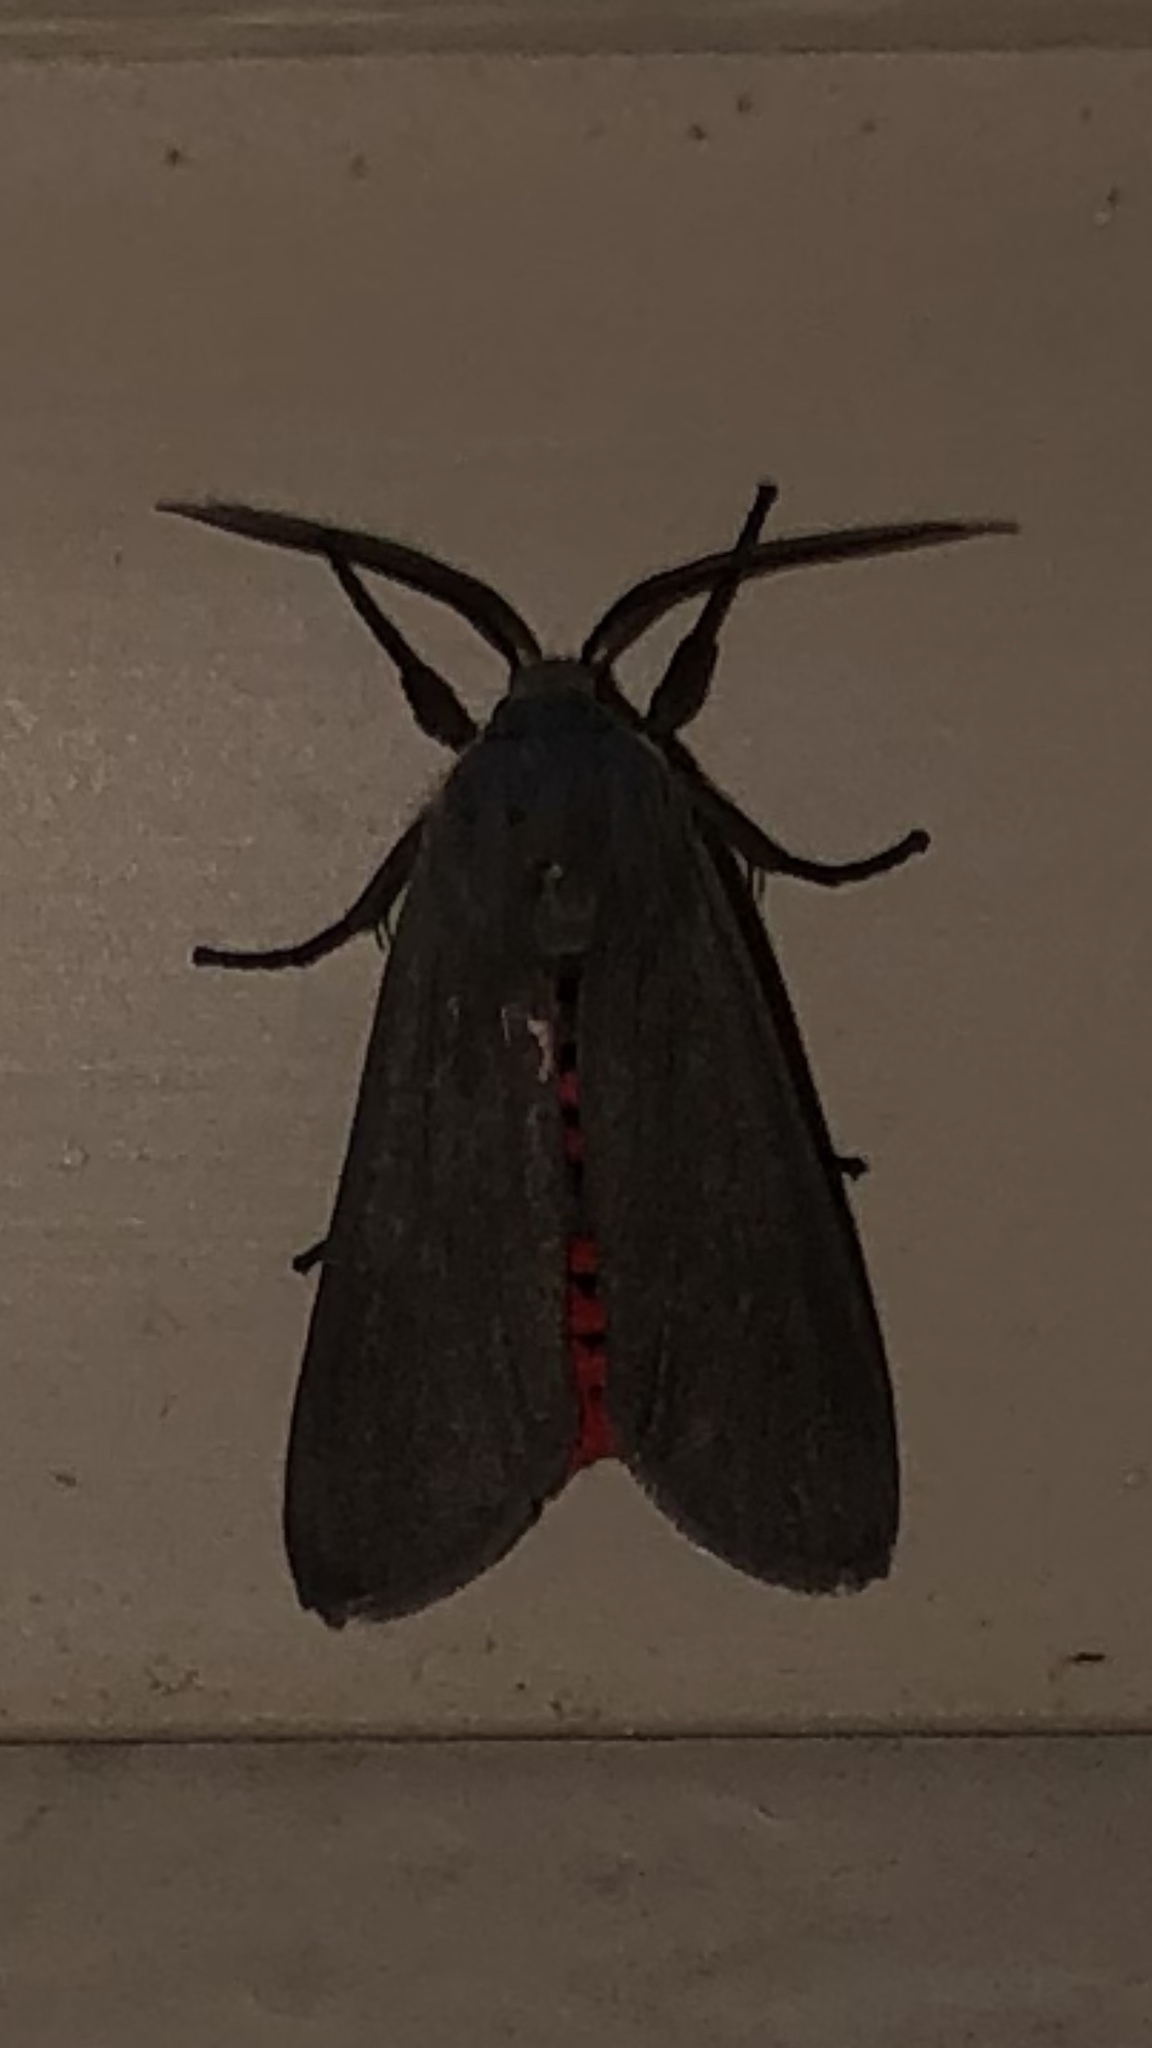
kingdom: Animalia
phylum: Arthropoda
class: Insecta
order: Lepidoptera
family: Erebidae
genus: Euchaetes
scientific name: Euchaetes bolteri
